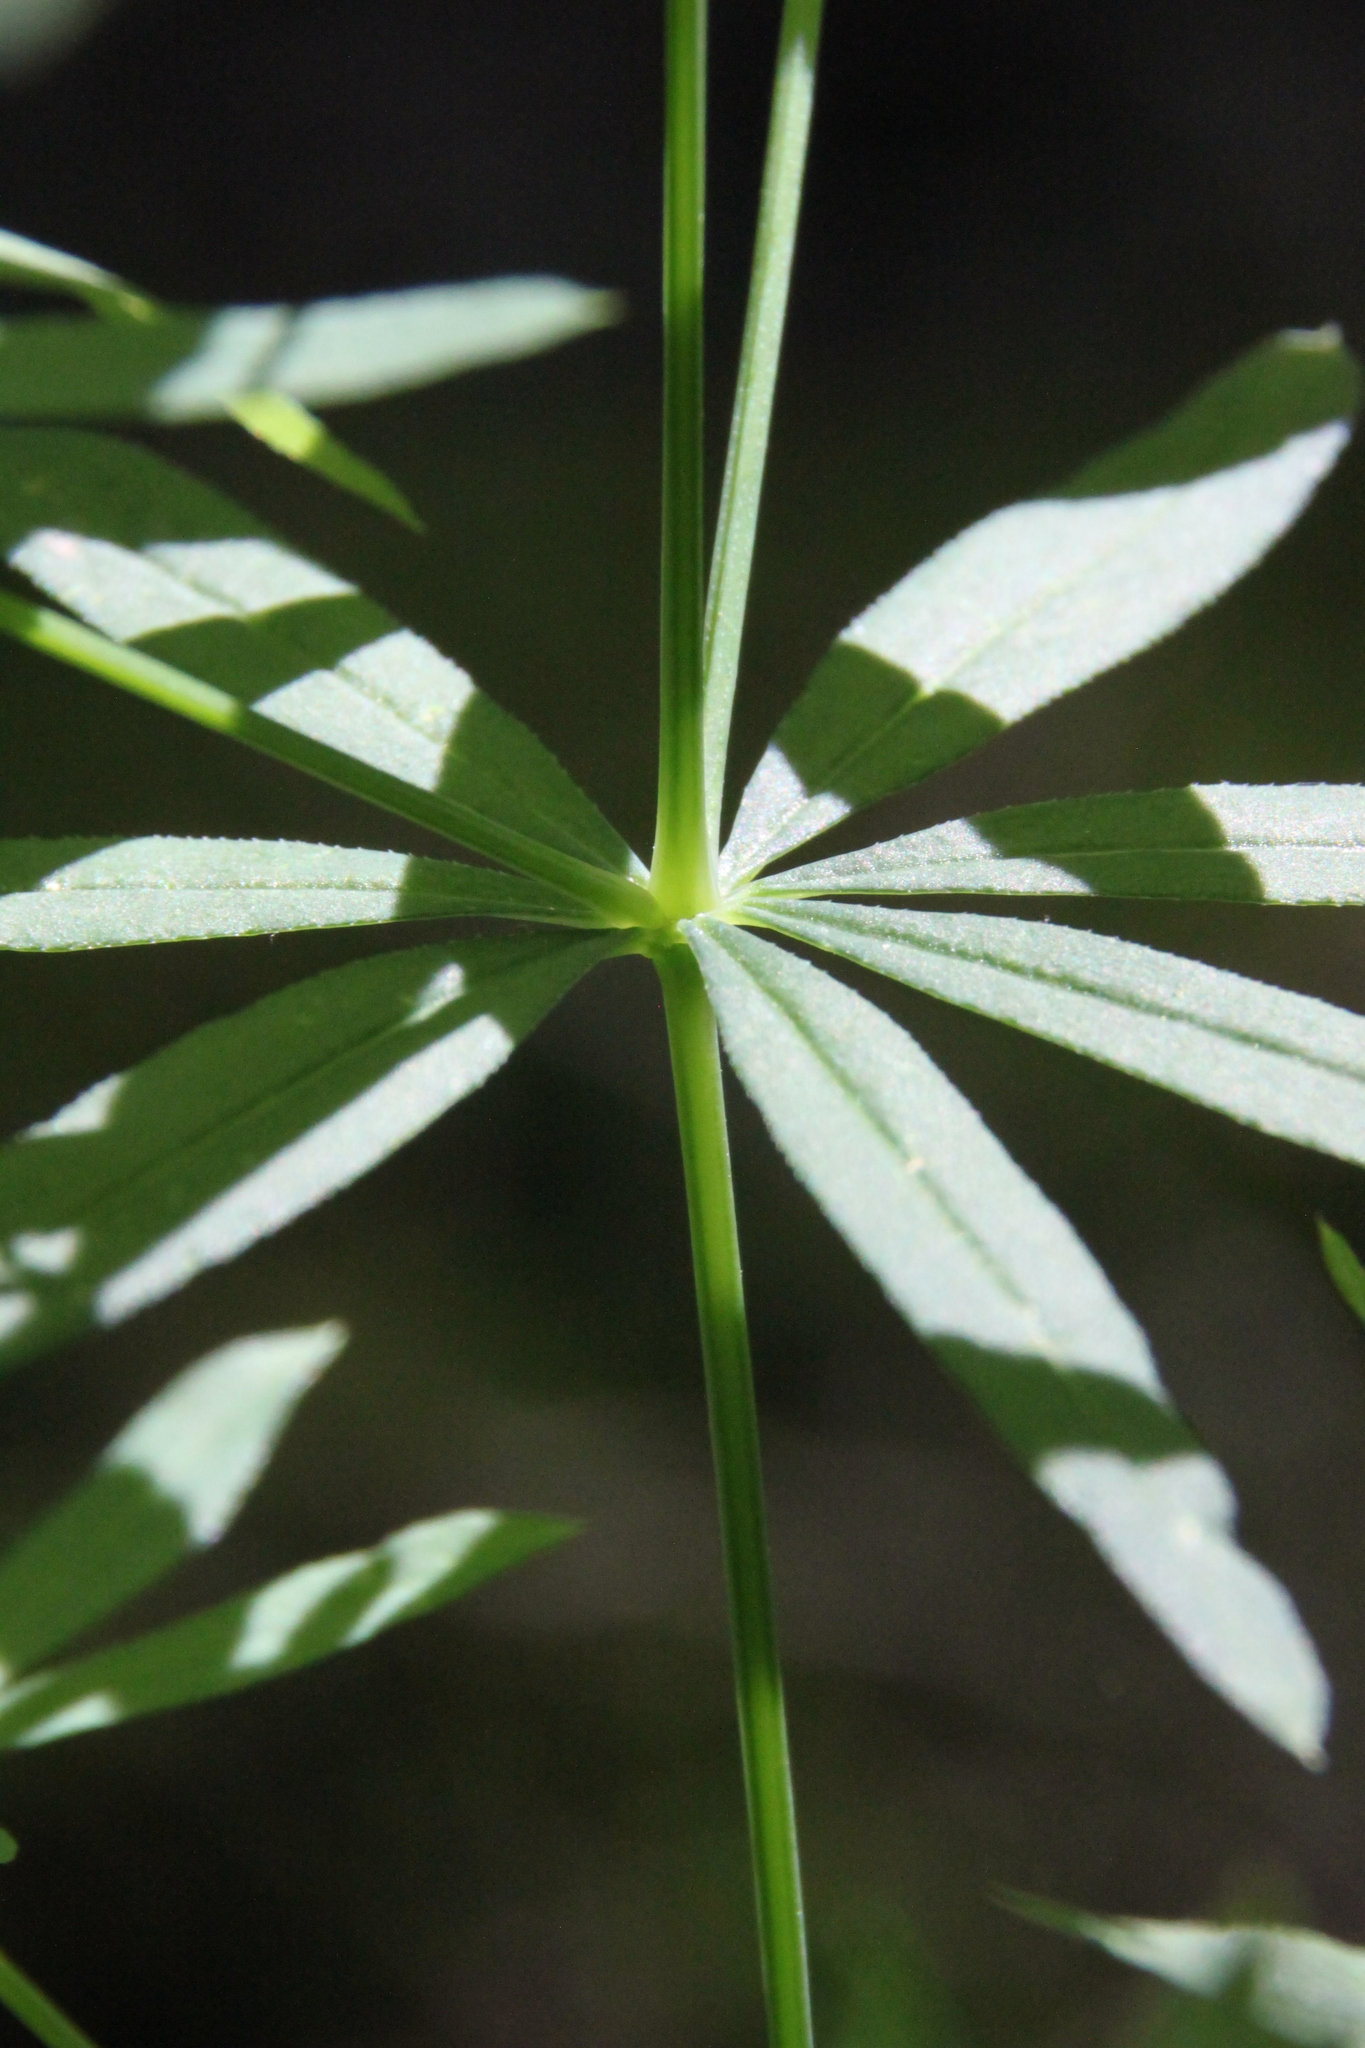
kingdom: Plantae
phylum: Tracheophyta
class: Magnoliopsida
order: Gentianales
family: Rubiaceae
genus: Galium
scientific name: Galium intermedium
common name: Bedstraw
